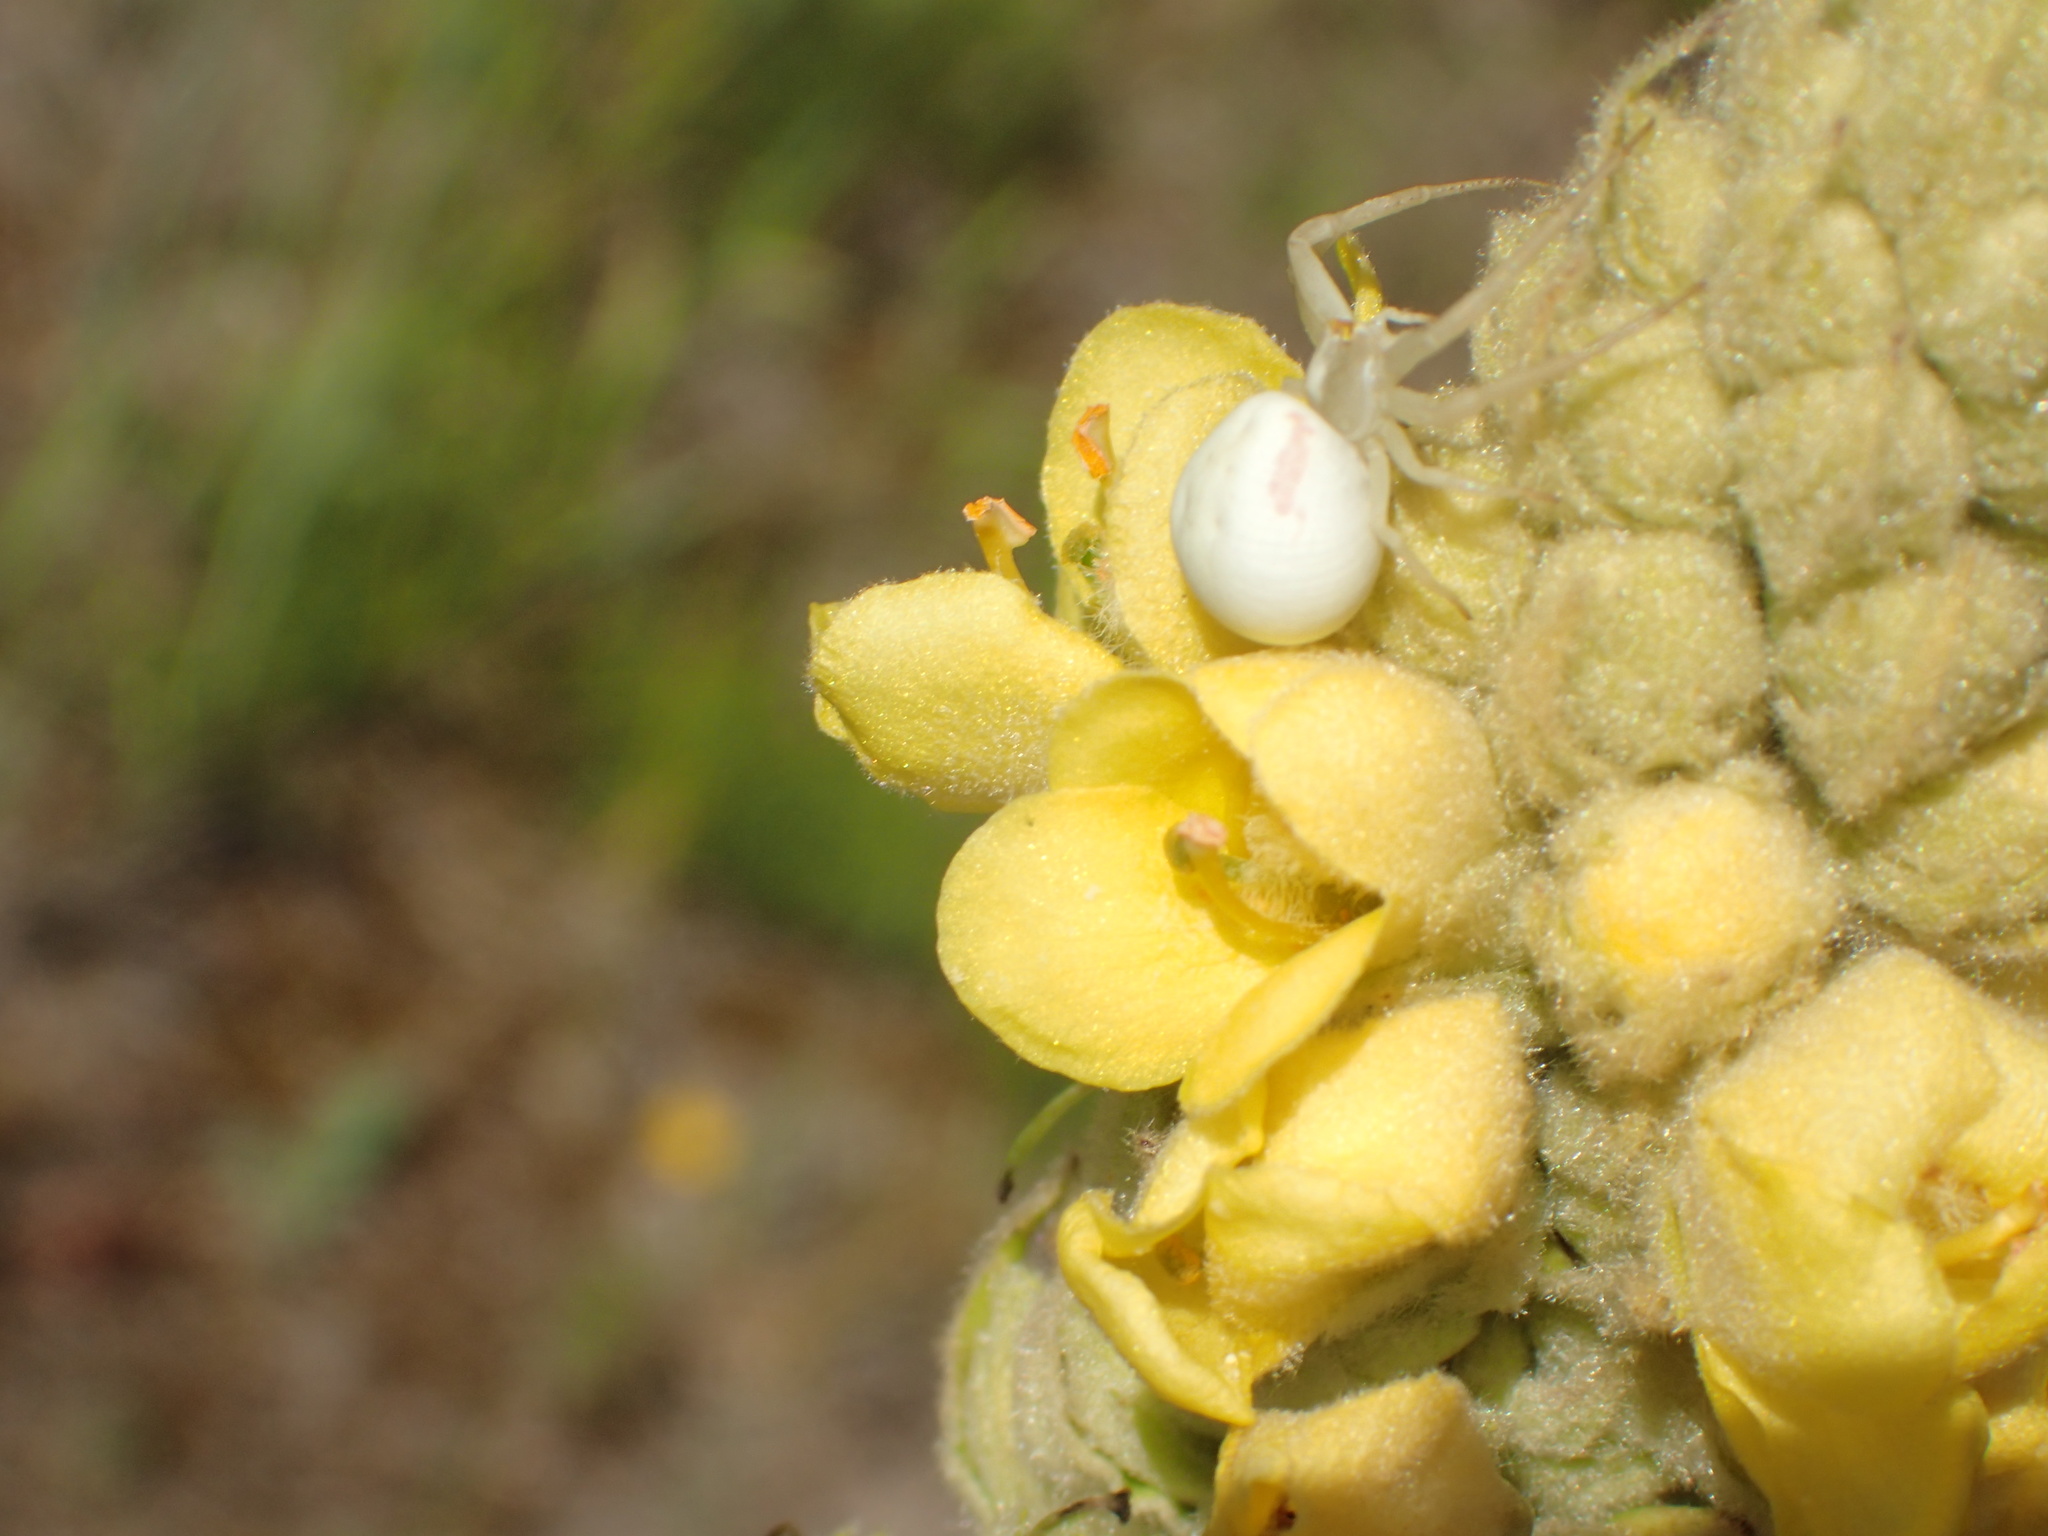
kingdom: Animalia
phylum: Arthropoda
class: Arachnida
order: Araneae
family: Thomisidae
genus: Misumena
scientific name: Misumena vatia
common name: Goldenrod crab spider
